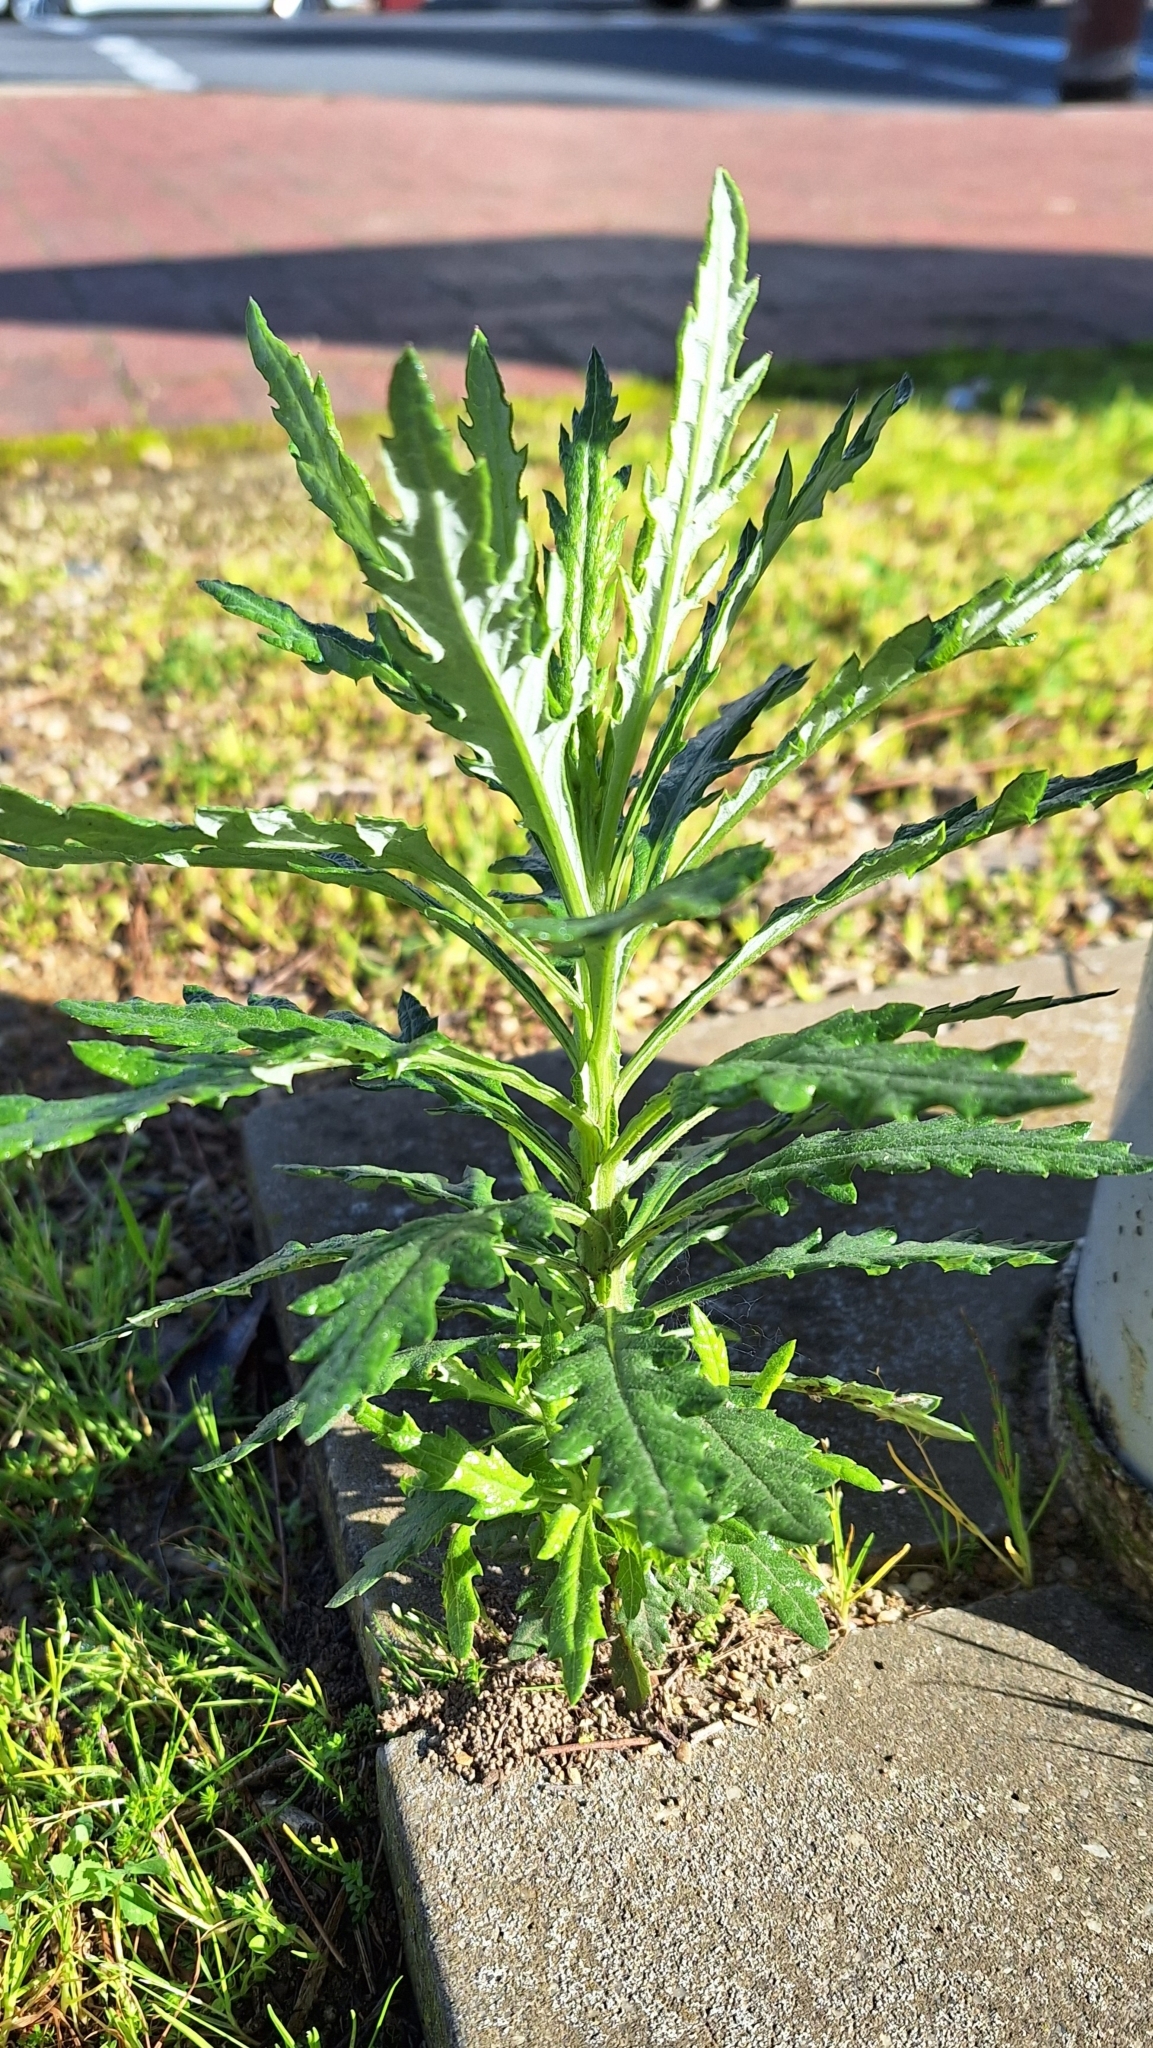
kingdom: Plantae
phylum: Tracheophyta
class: Magnoliopsida
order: Asterales
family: Asteraceae
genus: Senecio
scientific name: Senecio pterophorus
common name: Shoddy ragwort
